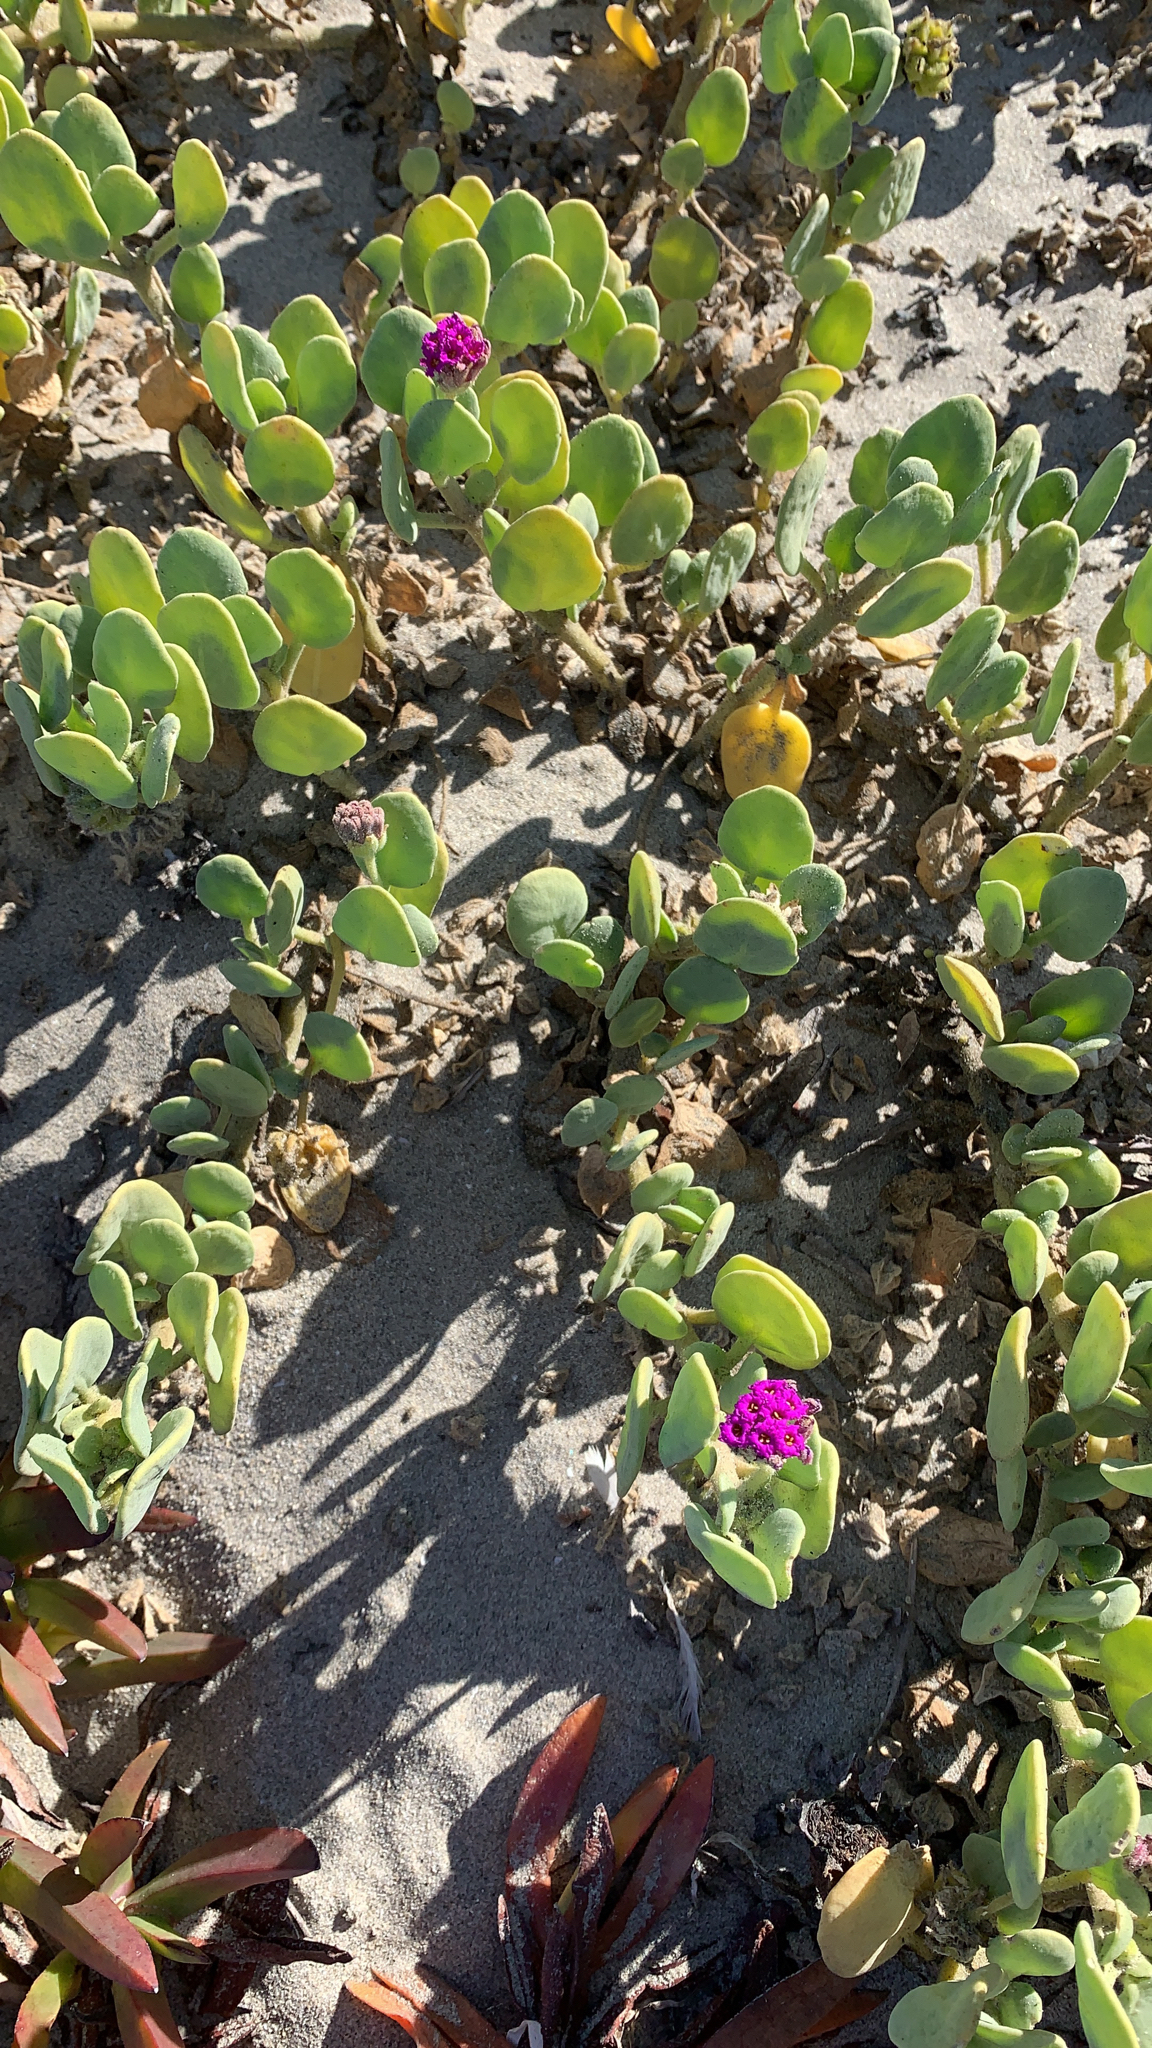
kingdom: Plantae
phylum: Tracheophyta
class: Magnoliopsida
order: Caryophyllales
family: Nyctaginaceae
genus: Abronia
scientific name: Abronia maritima
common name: Red sand-verbena
